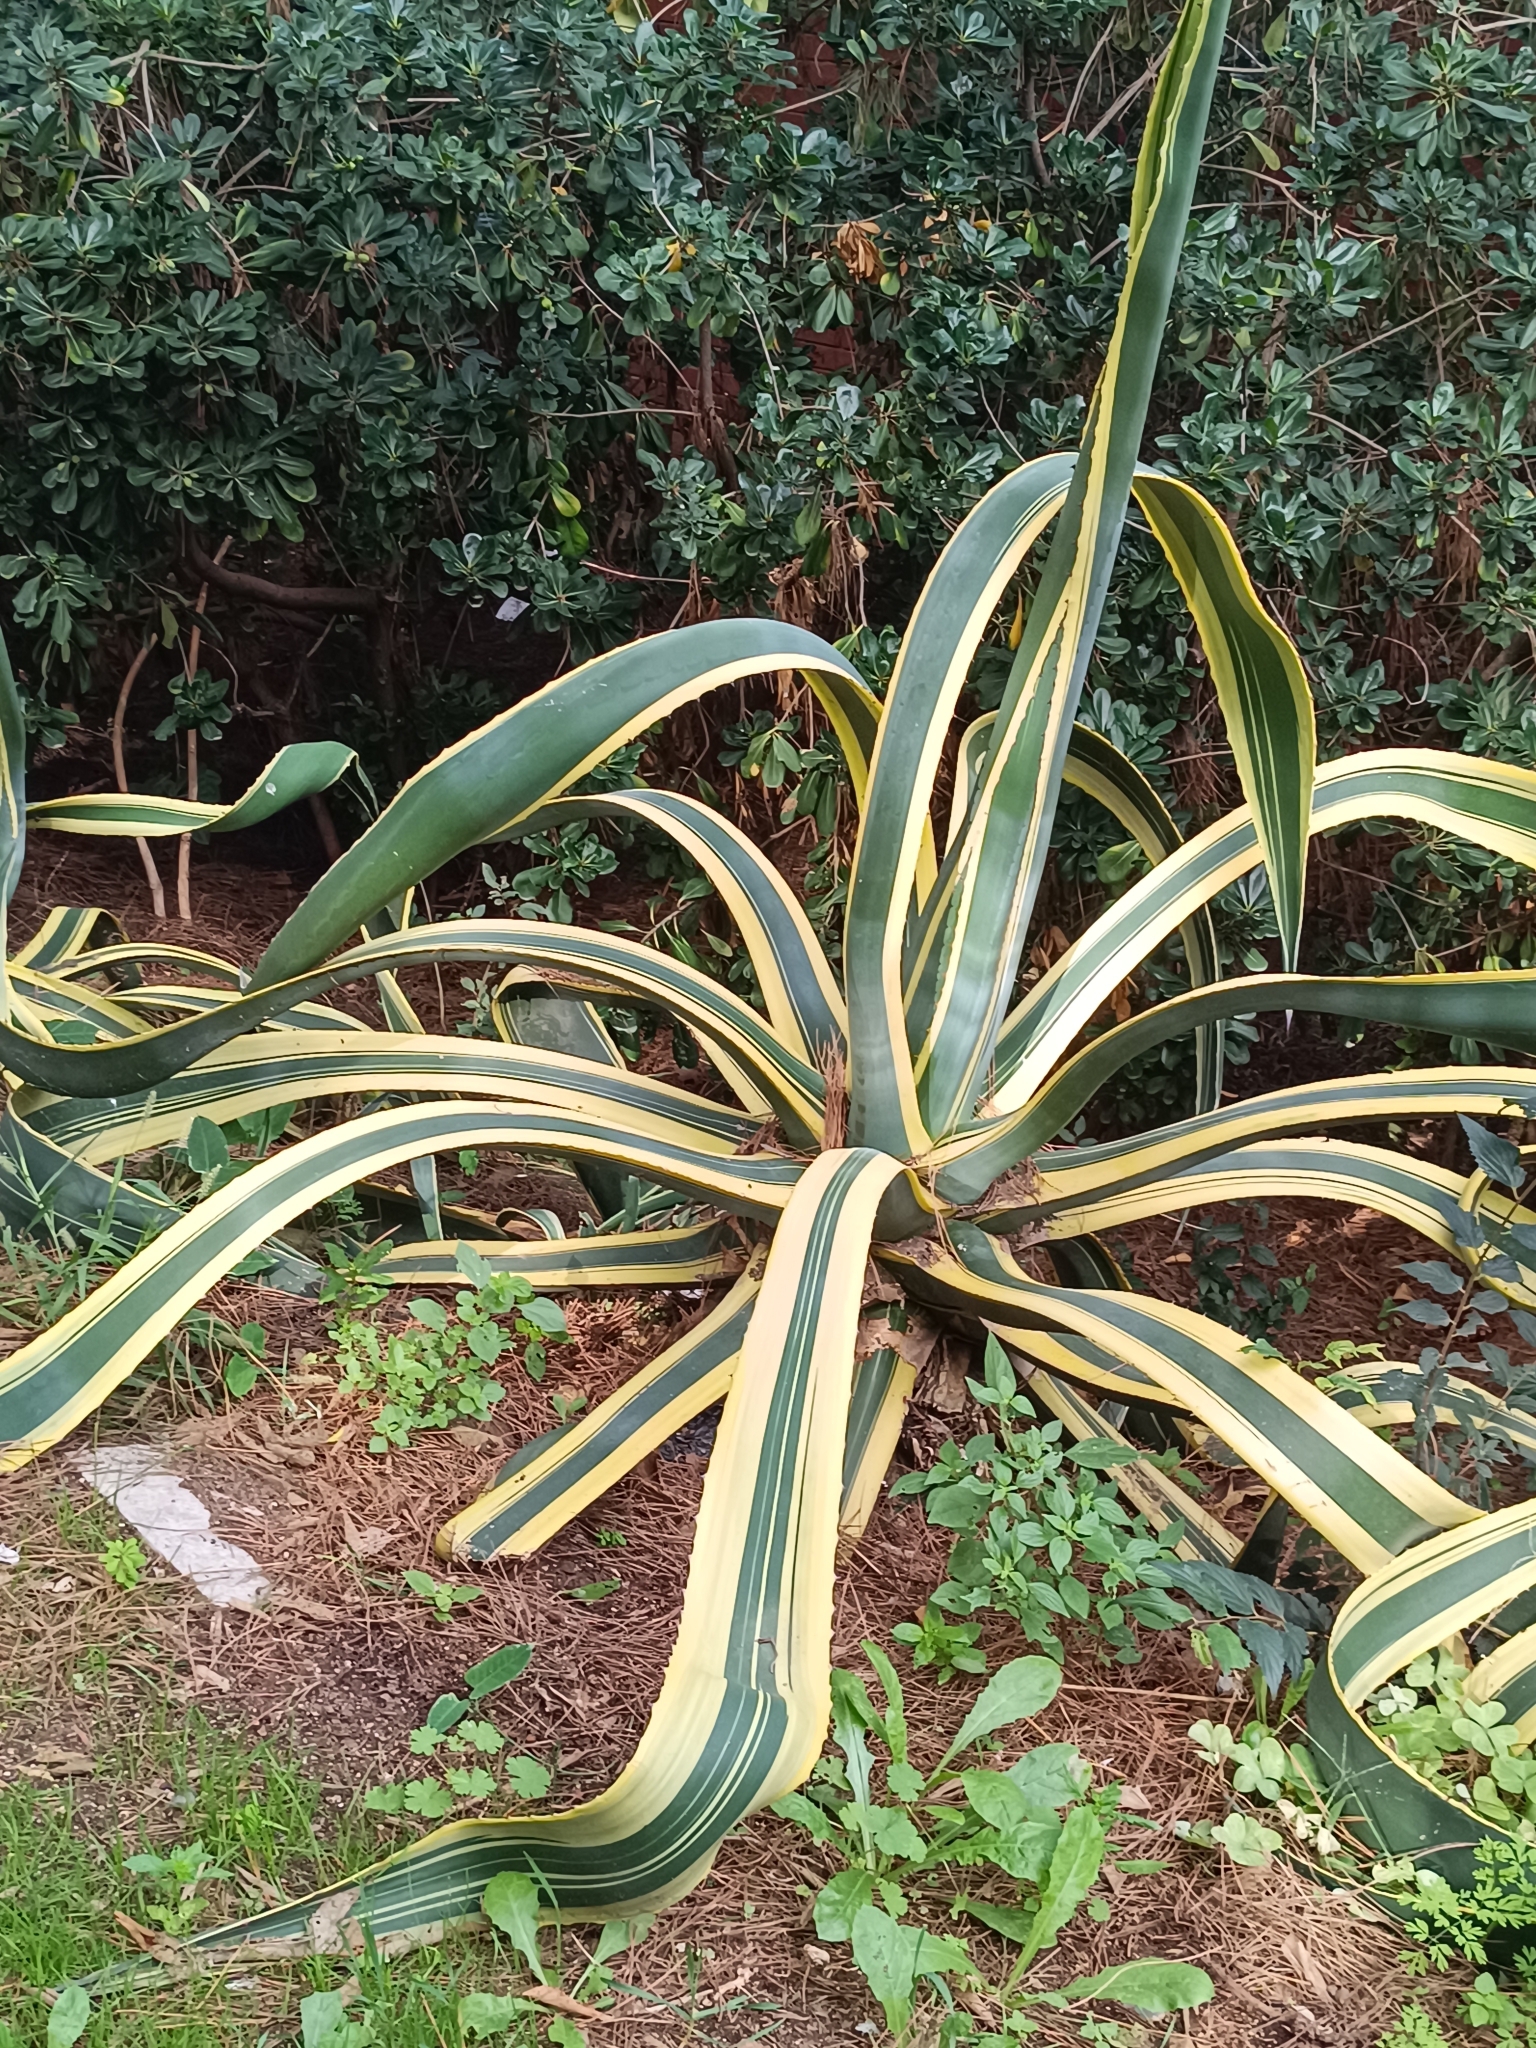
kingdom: Plantae
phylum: Tracheophyta
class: Liliopsida
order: Asparagales
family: Asparagaceae
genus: Agave
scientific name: Agave americana
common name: Centuryplant
